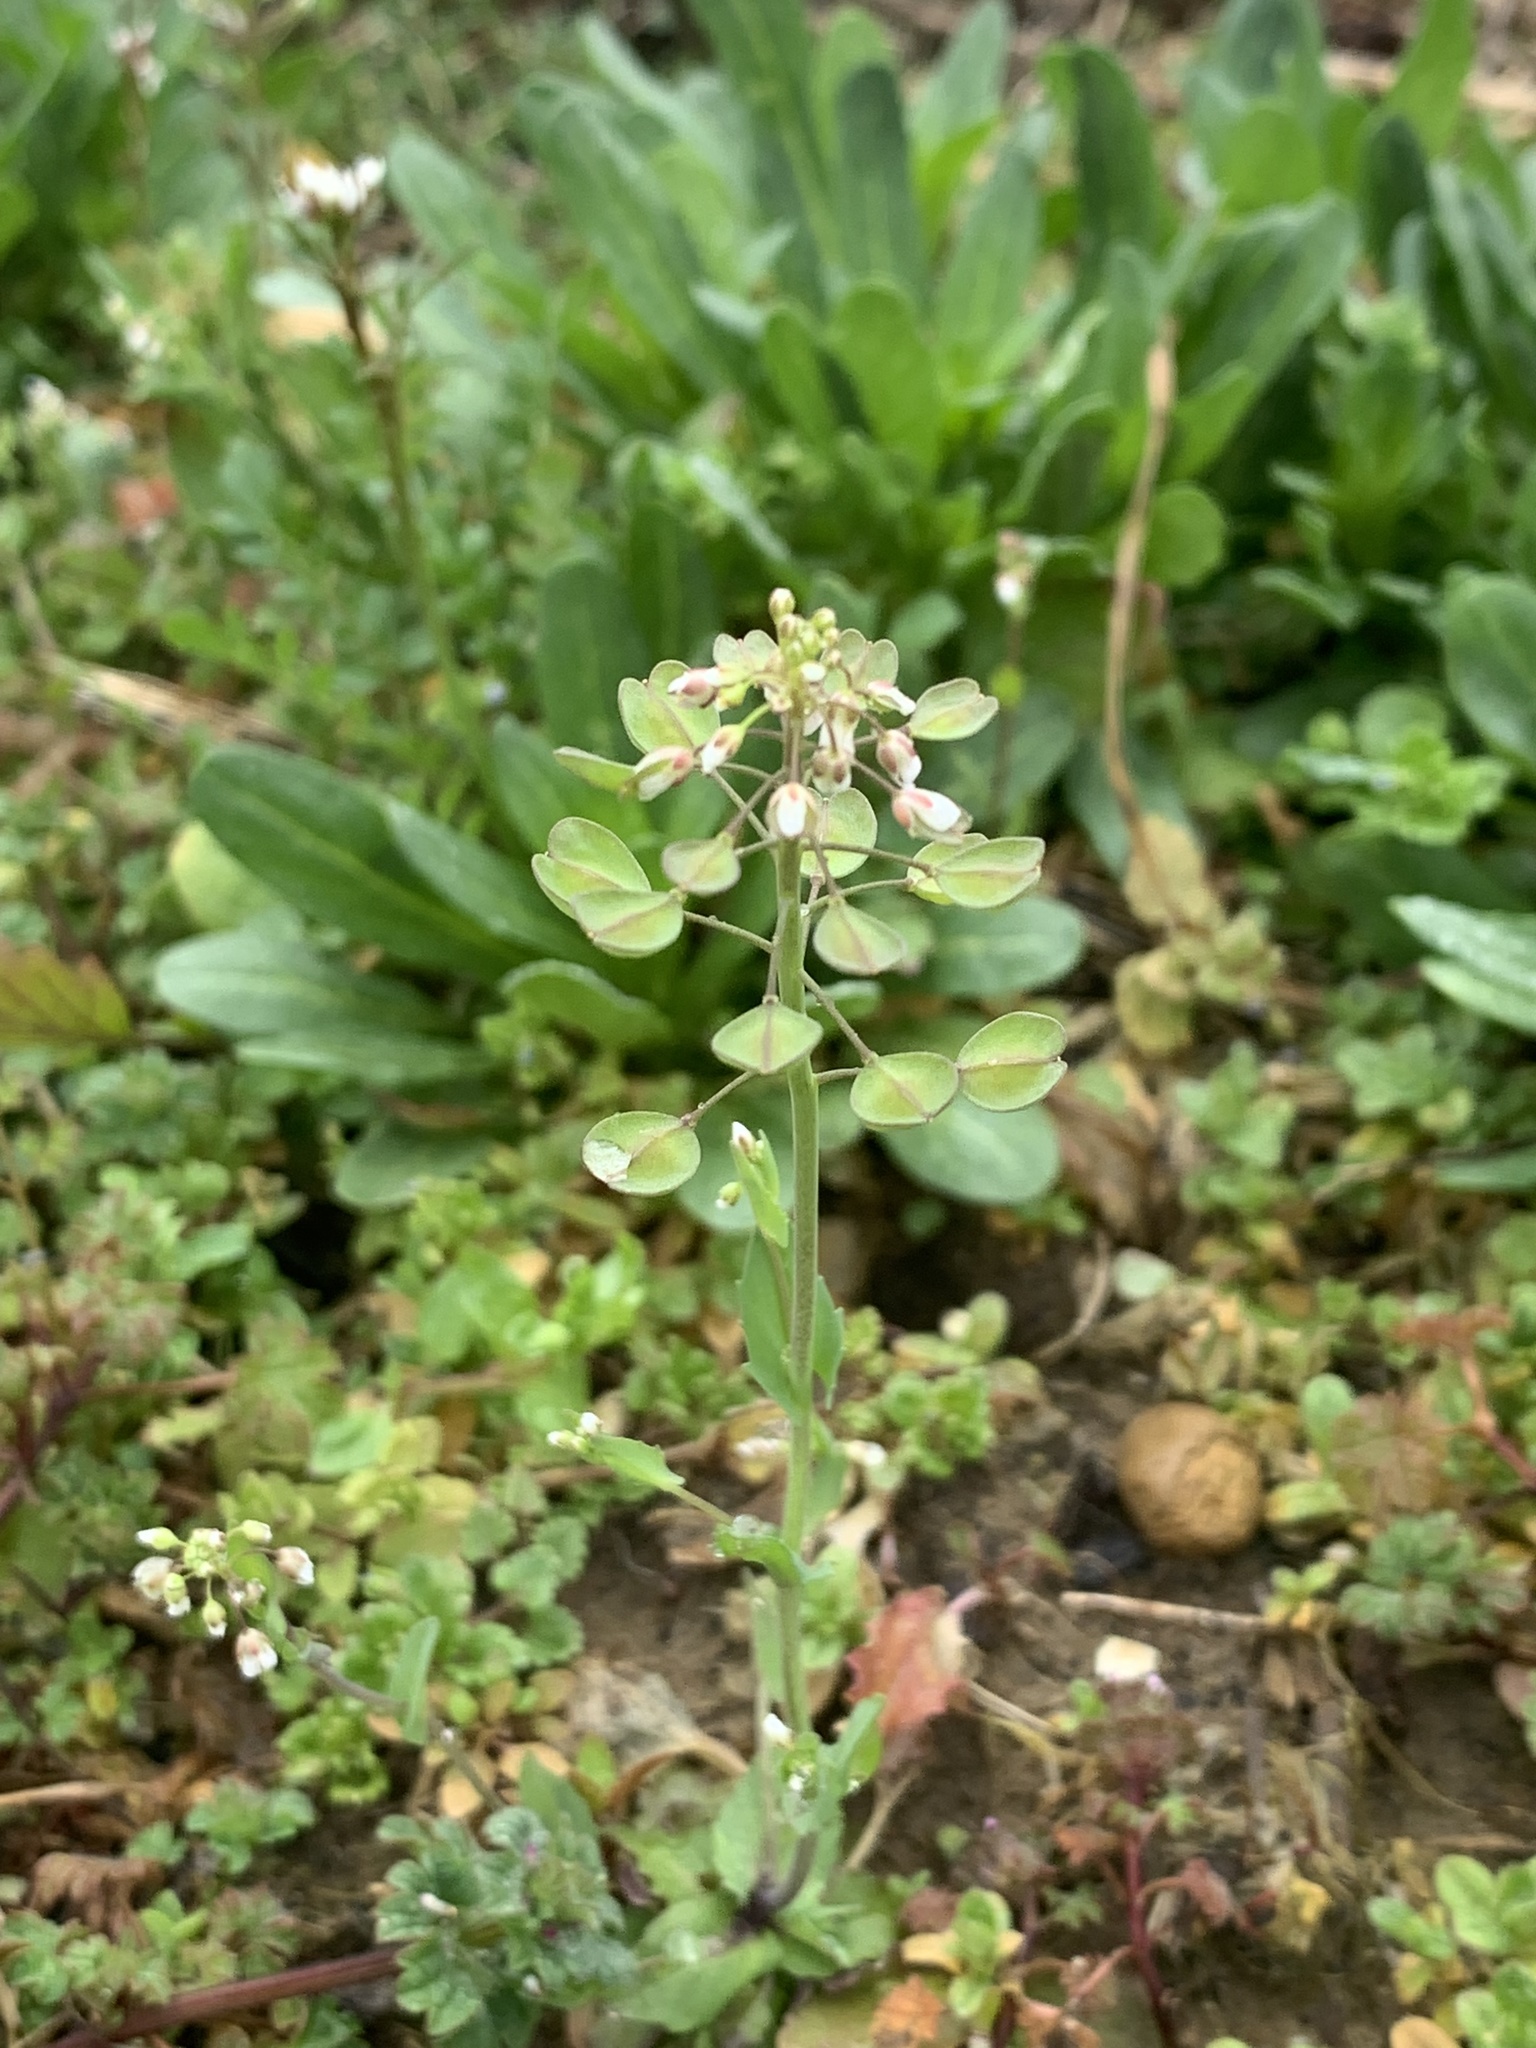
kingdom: Plantae
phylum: Tracheophyta
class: Magnoliopsida
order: Brassicales
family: Brassicaceae
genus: Noccaea
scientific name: Noccaea perfoliata
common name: Perfoliate pennycress
